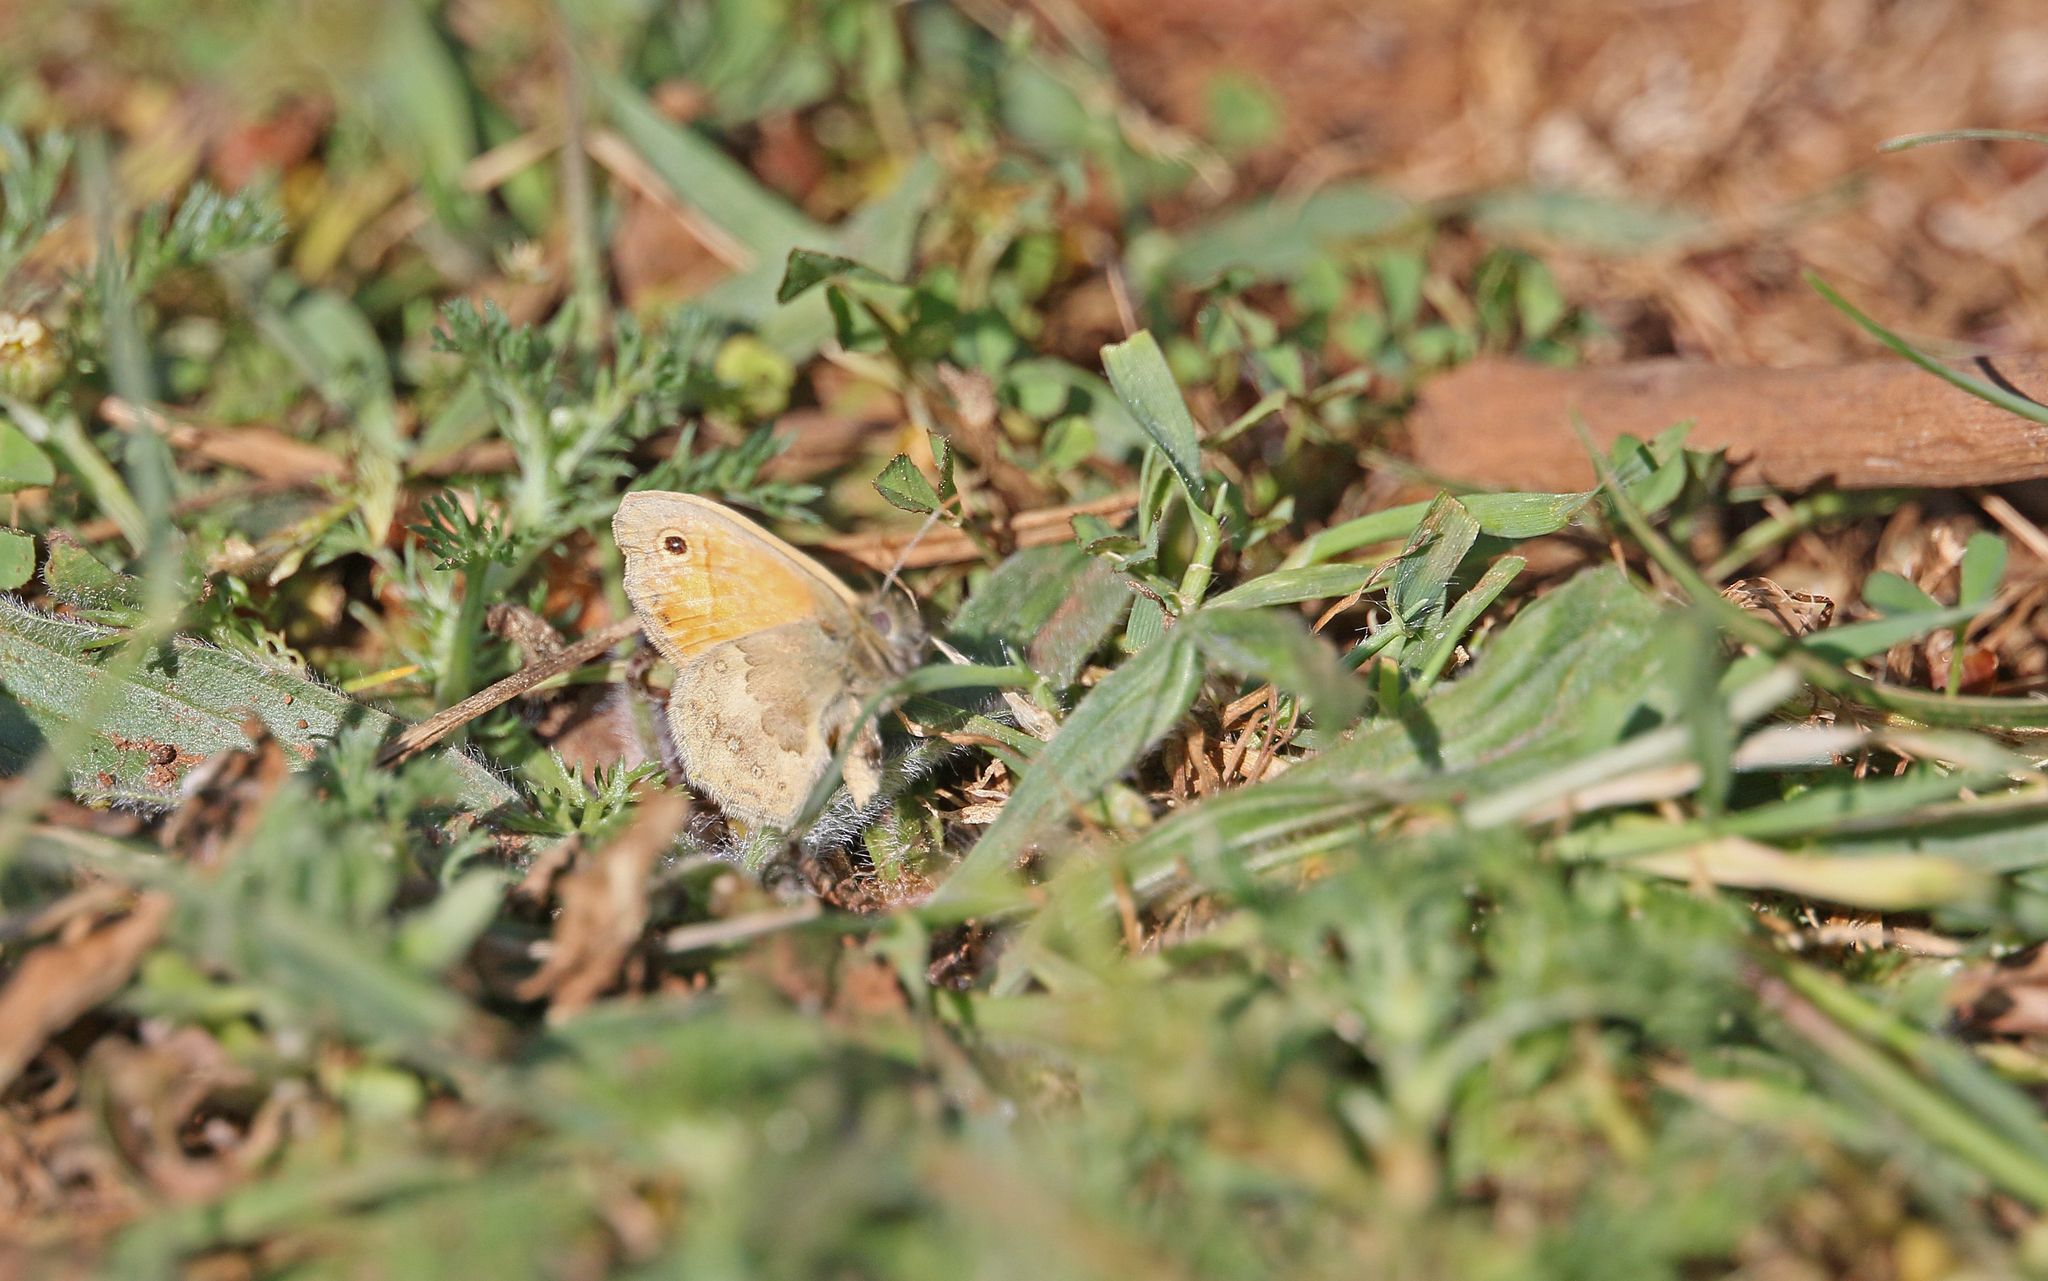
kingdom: Animalia
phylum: Arthropoda
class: Insecta
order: Lepidoptera
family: Nymphalidae
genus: Coenonympha
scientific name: Coenonympha pamphilus
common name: Small heath
